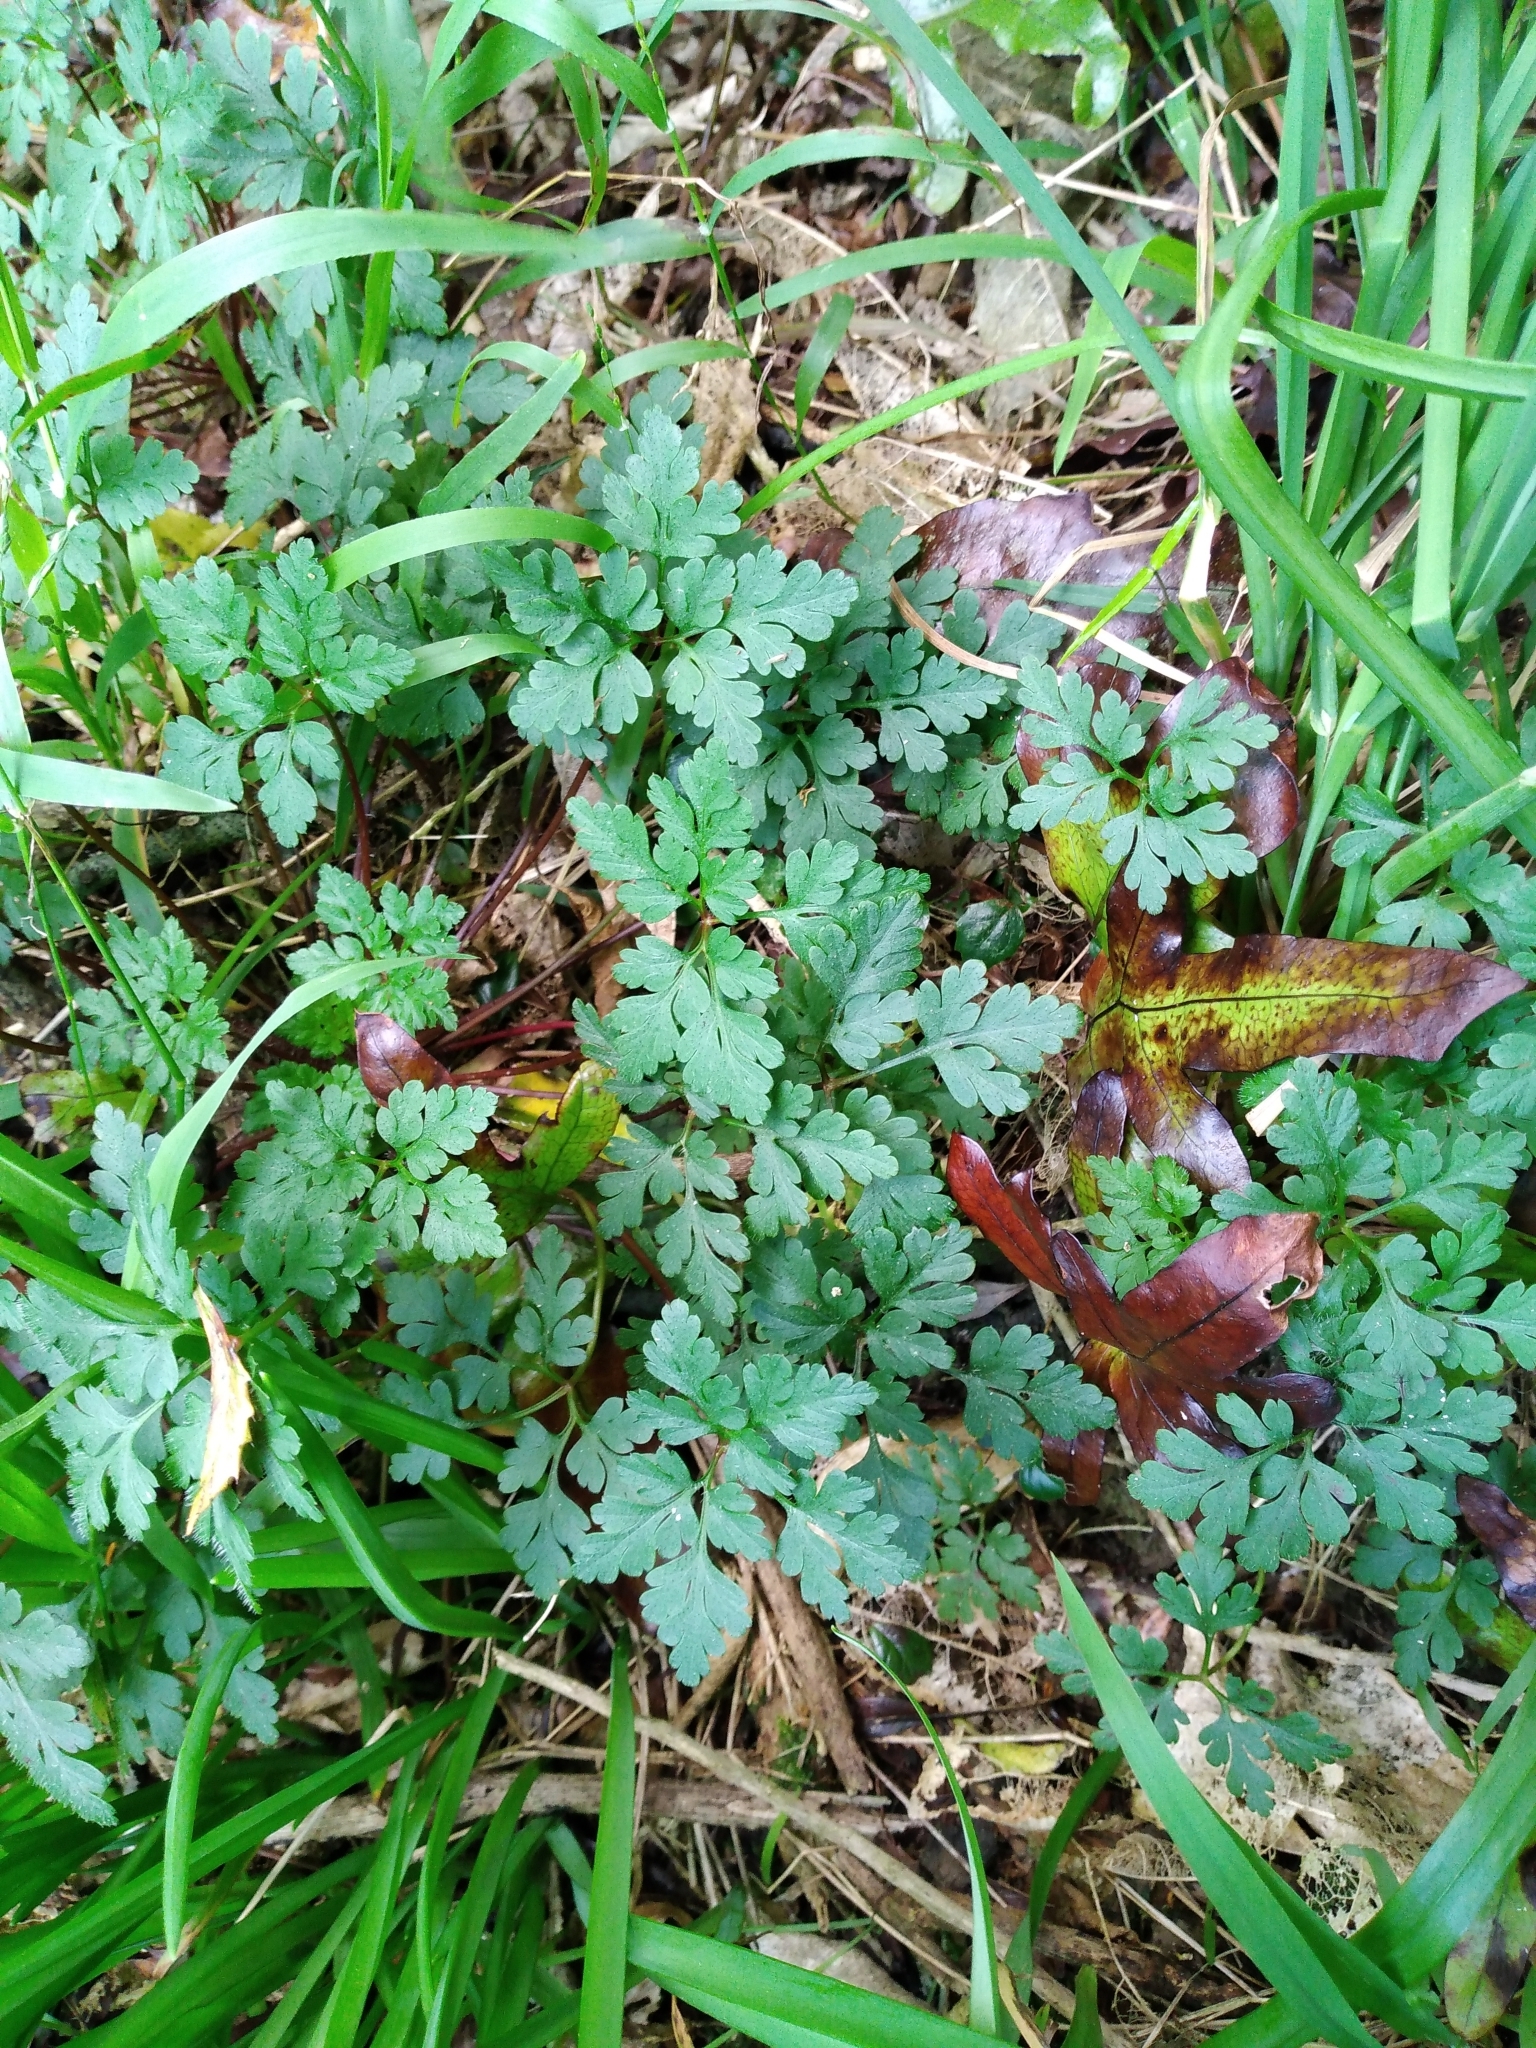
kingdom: Plantae
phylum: Tracheophyta
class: Magnoliopsida
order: Geraniales
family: Geraniaceae
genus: Geranium
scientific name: Geranium robertianum
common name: Herb-robert
